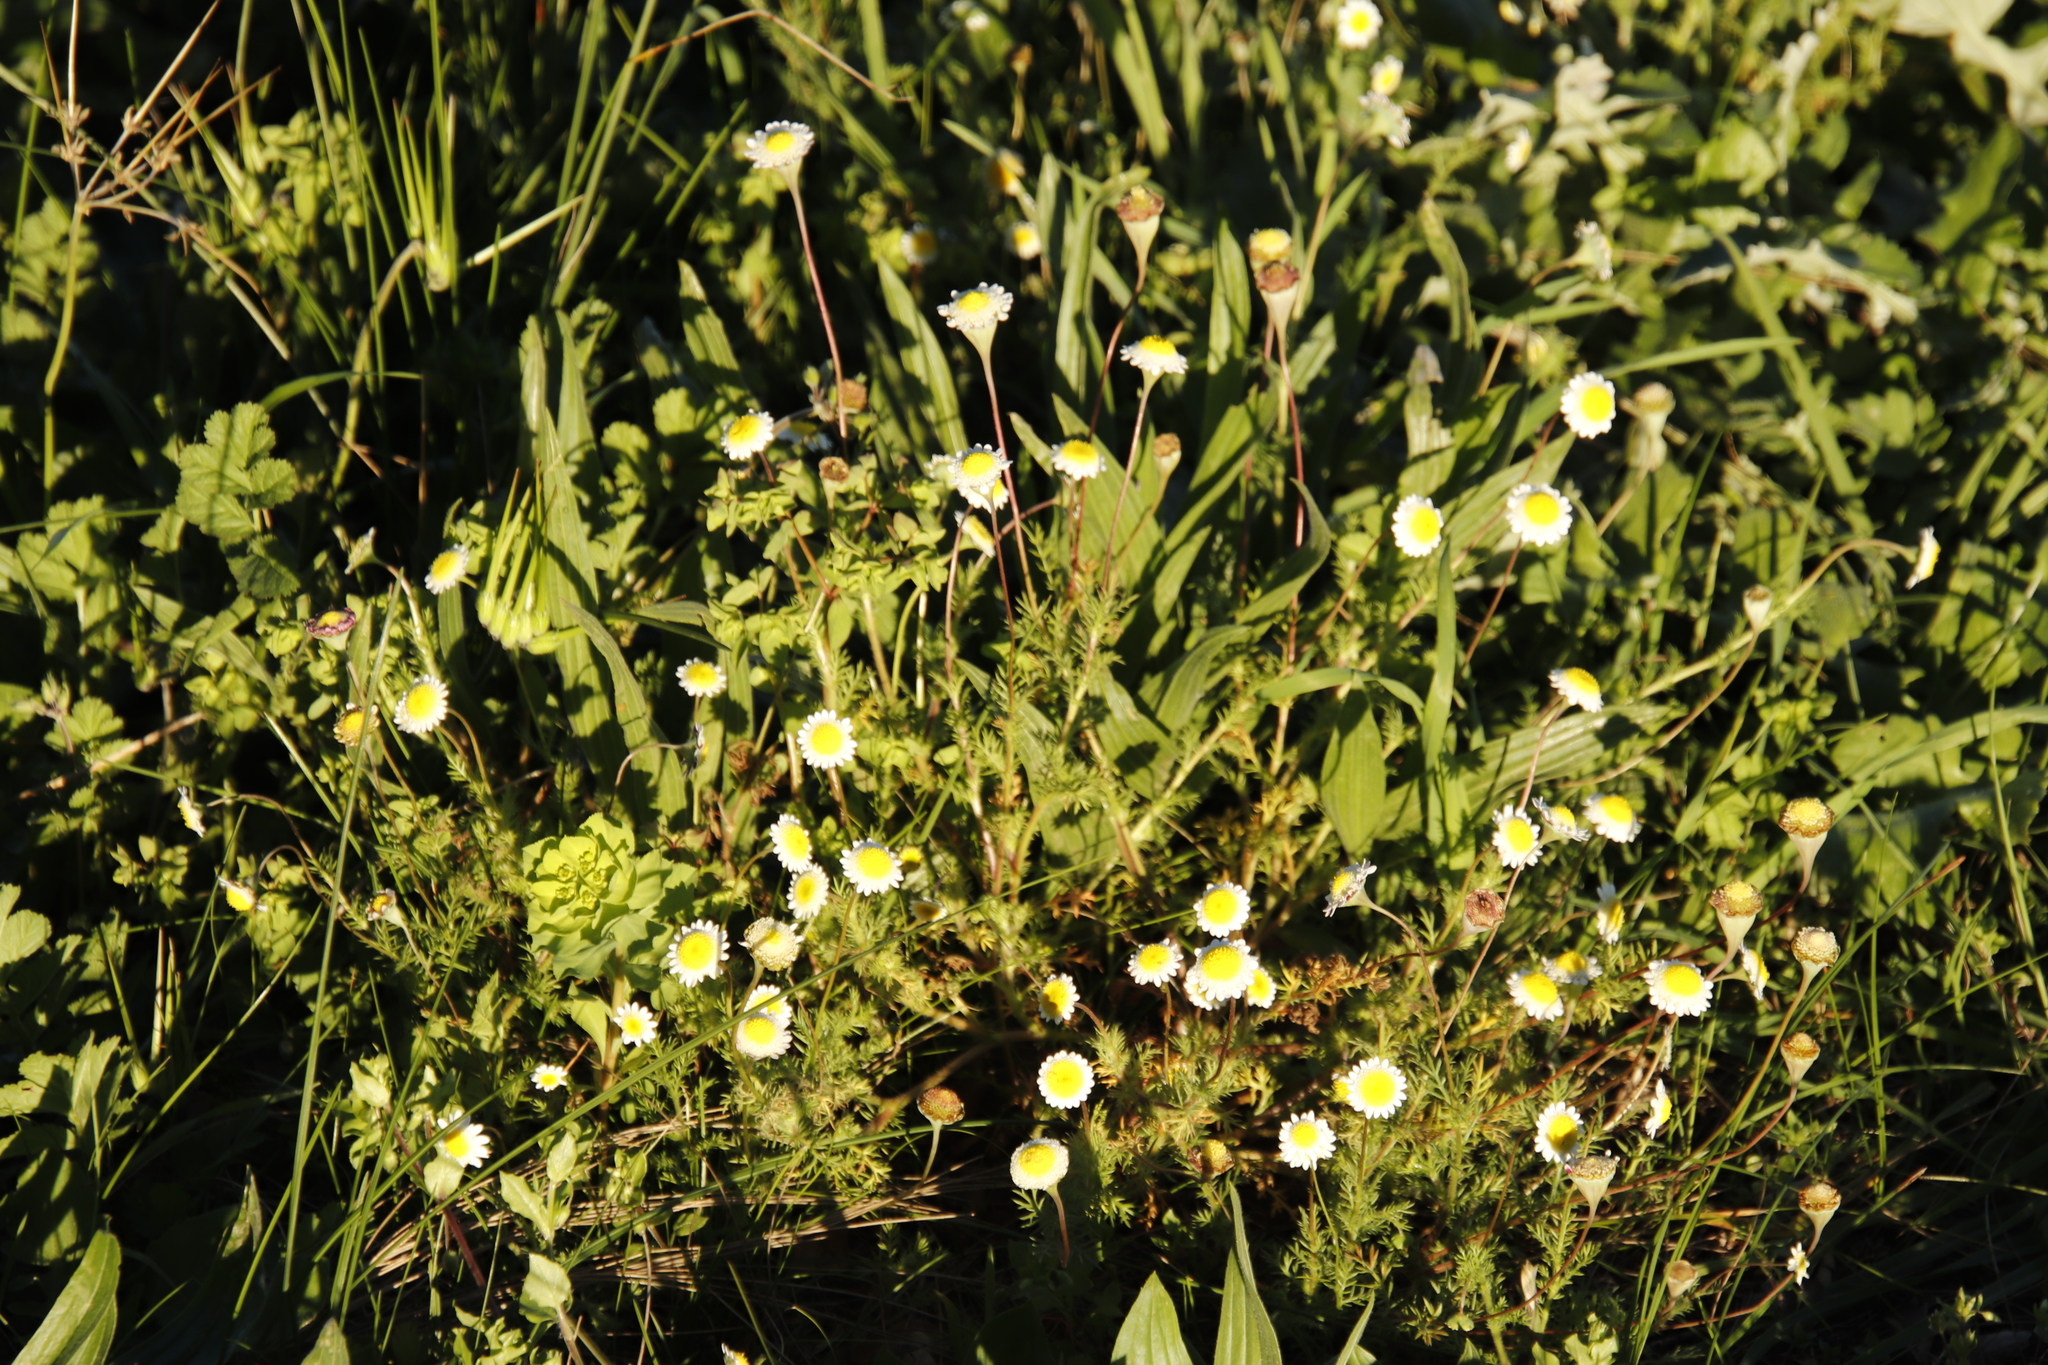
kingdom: Plantae
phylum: Tracheophyta
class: Magnoliopsida
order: Asterales
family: Asteraceae
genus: Cotula
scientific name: Cotula turbinata
